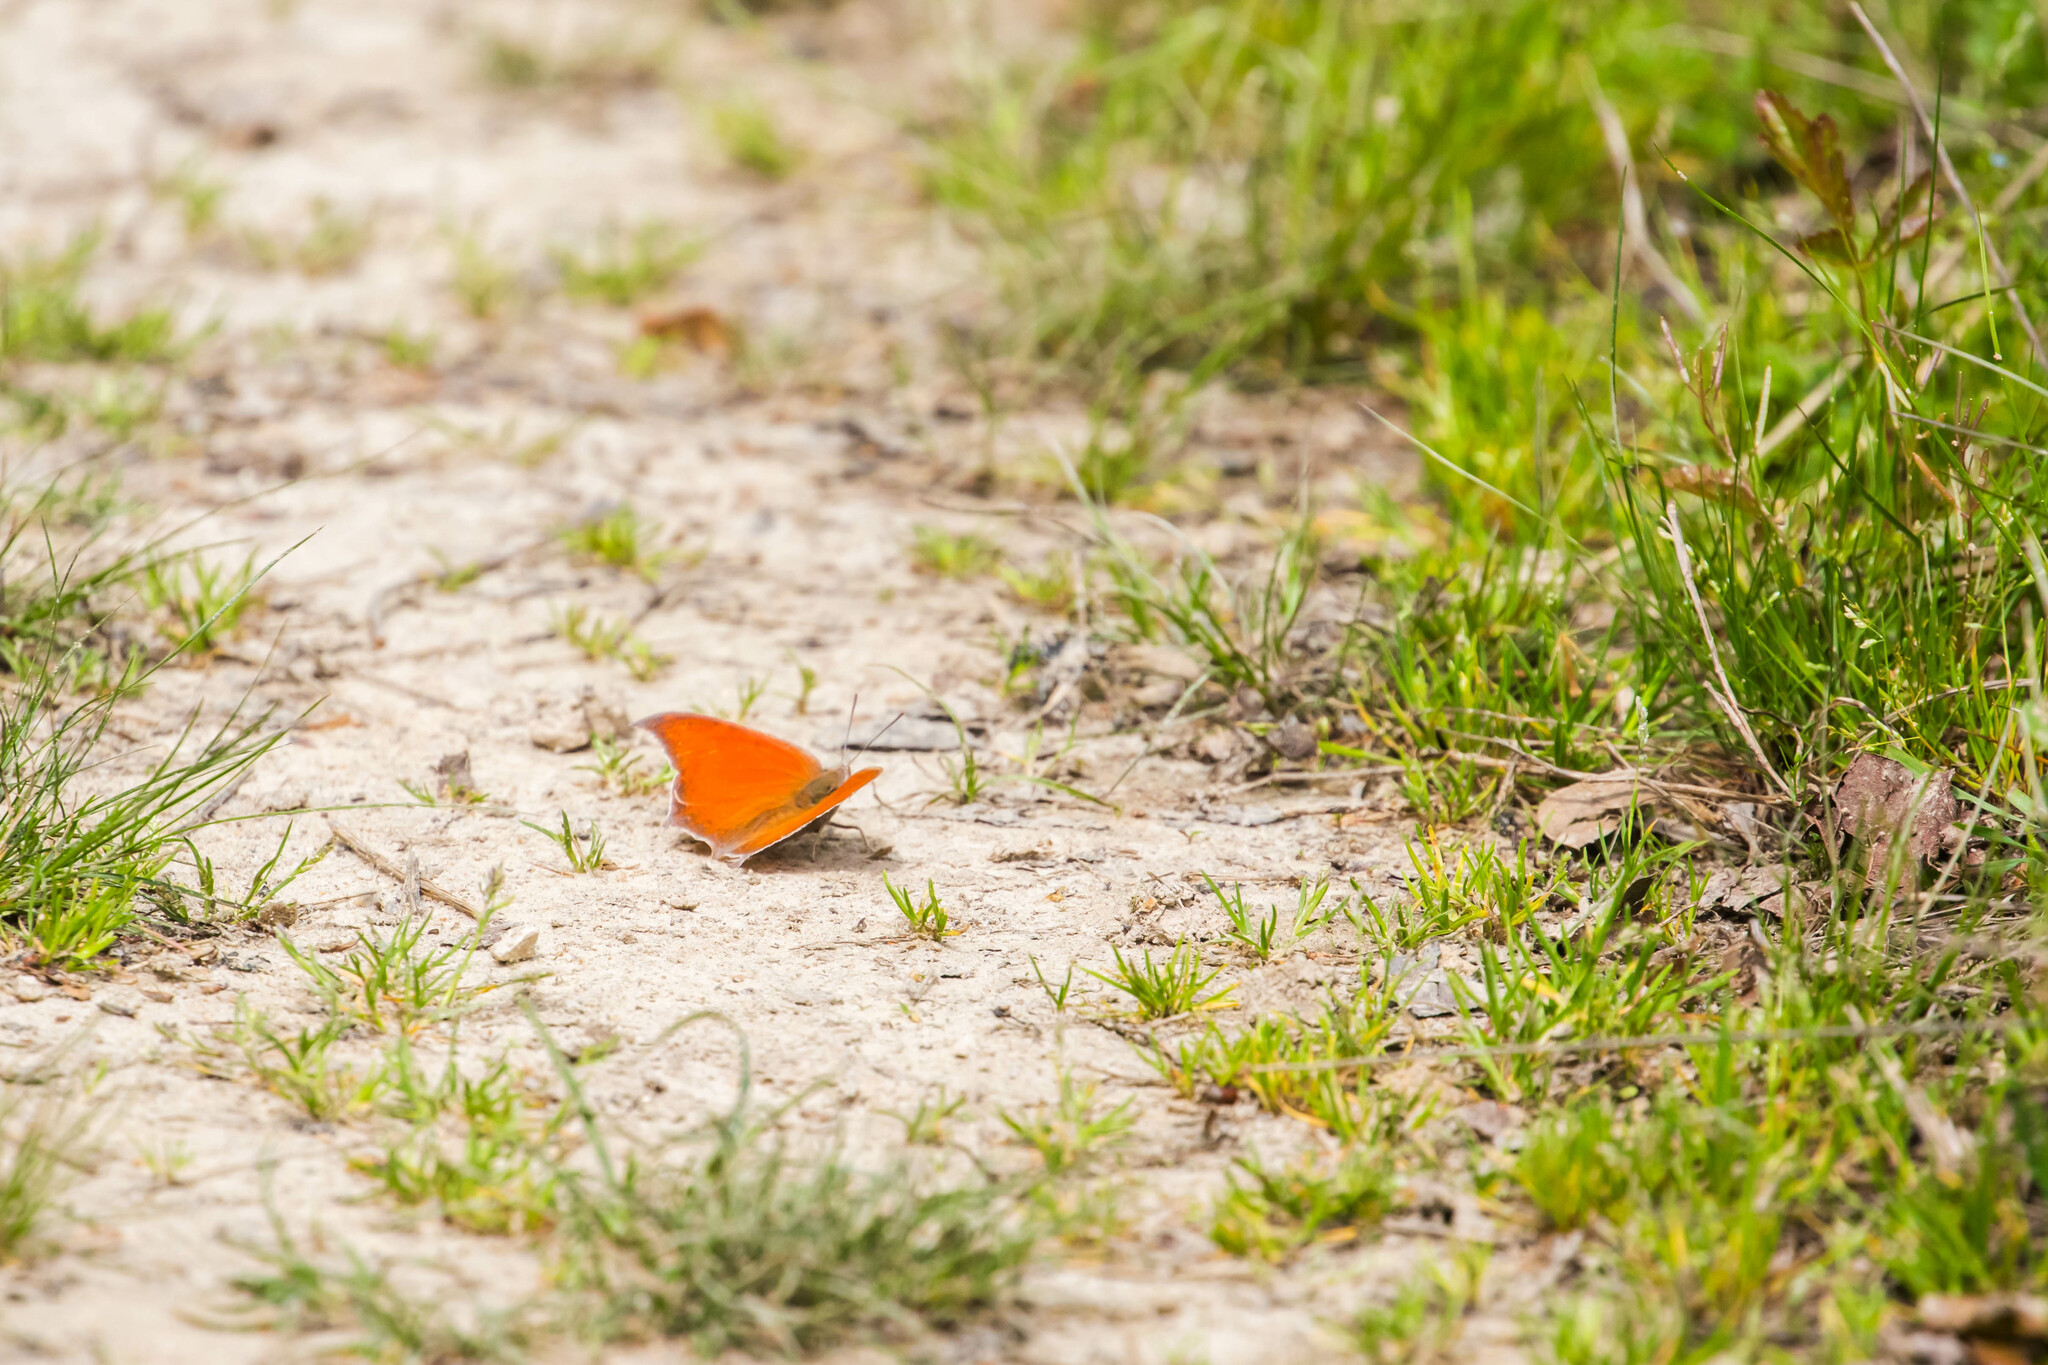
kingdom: Animalia
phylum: Arthropoda
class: Insecta
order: Lepidoptera
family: Nymphalidae
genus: Anaea
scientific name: Anaea andria
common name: Goatweed leafwing
